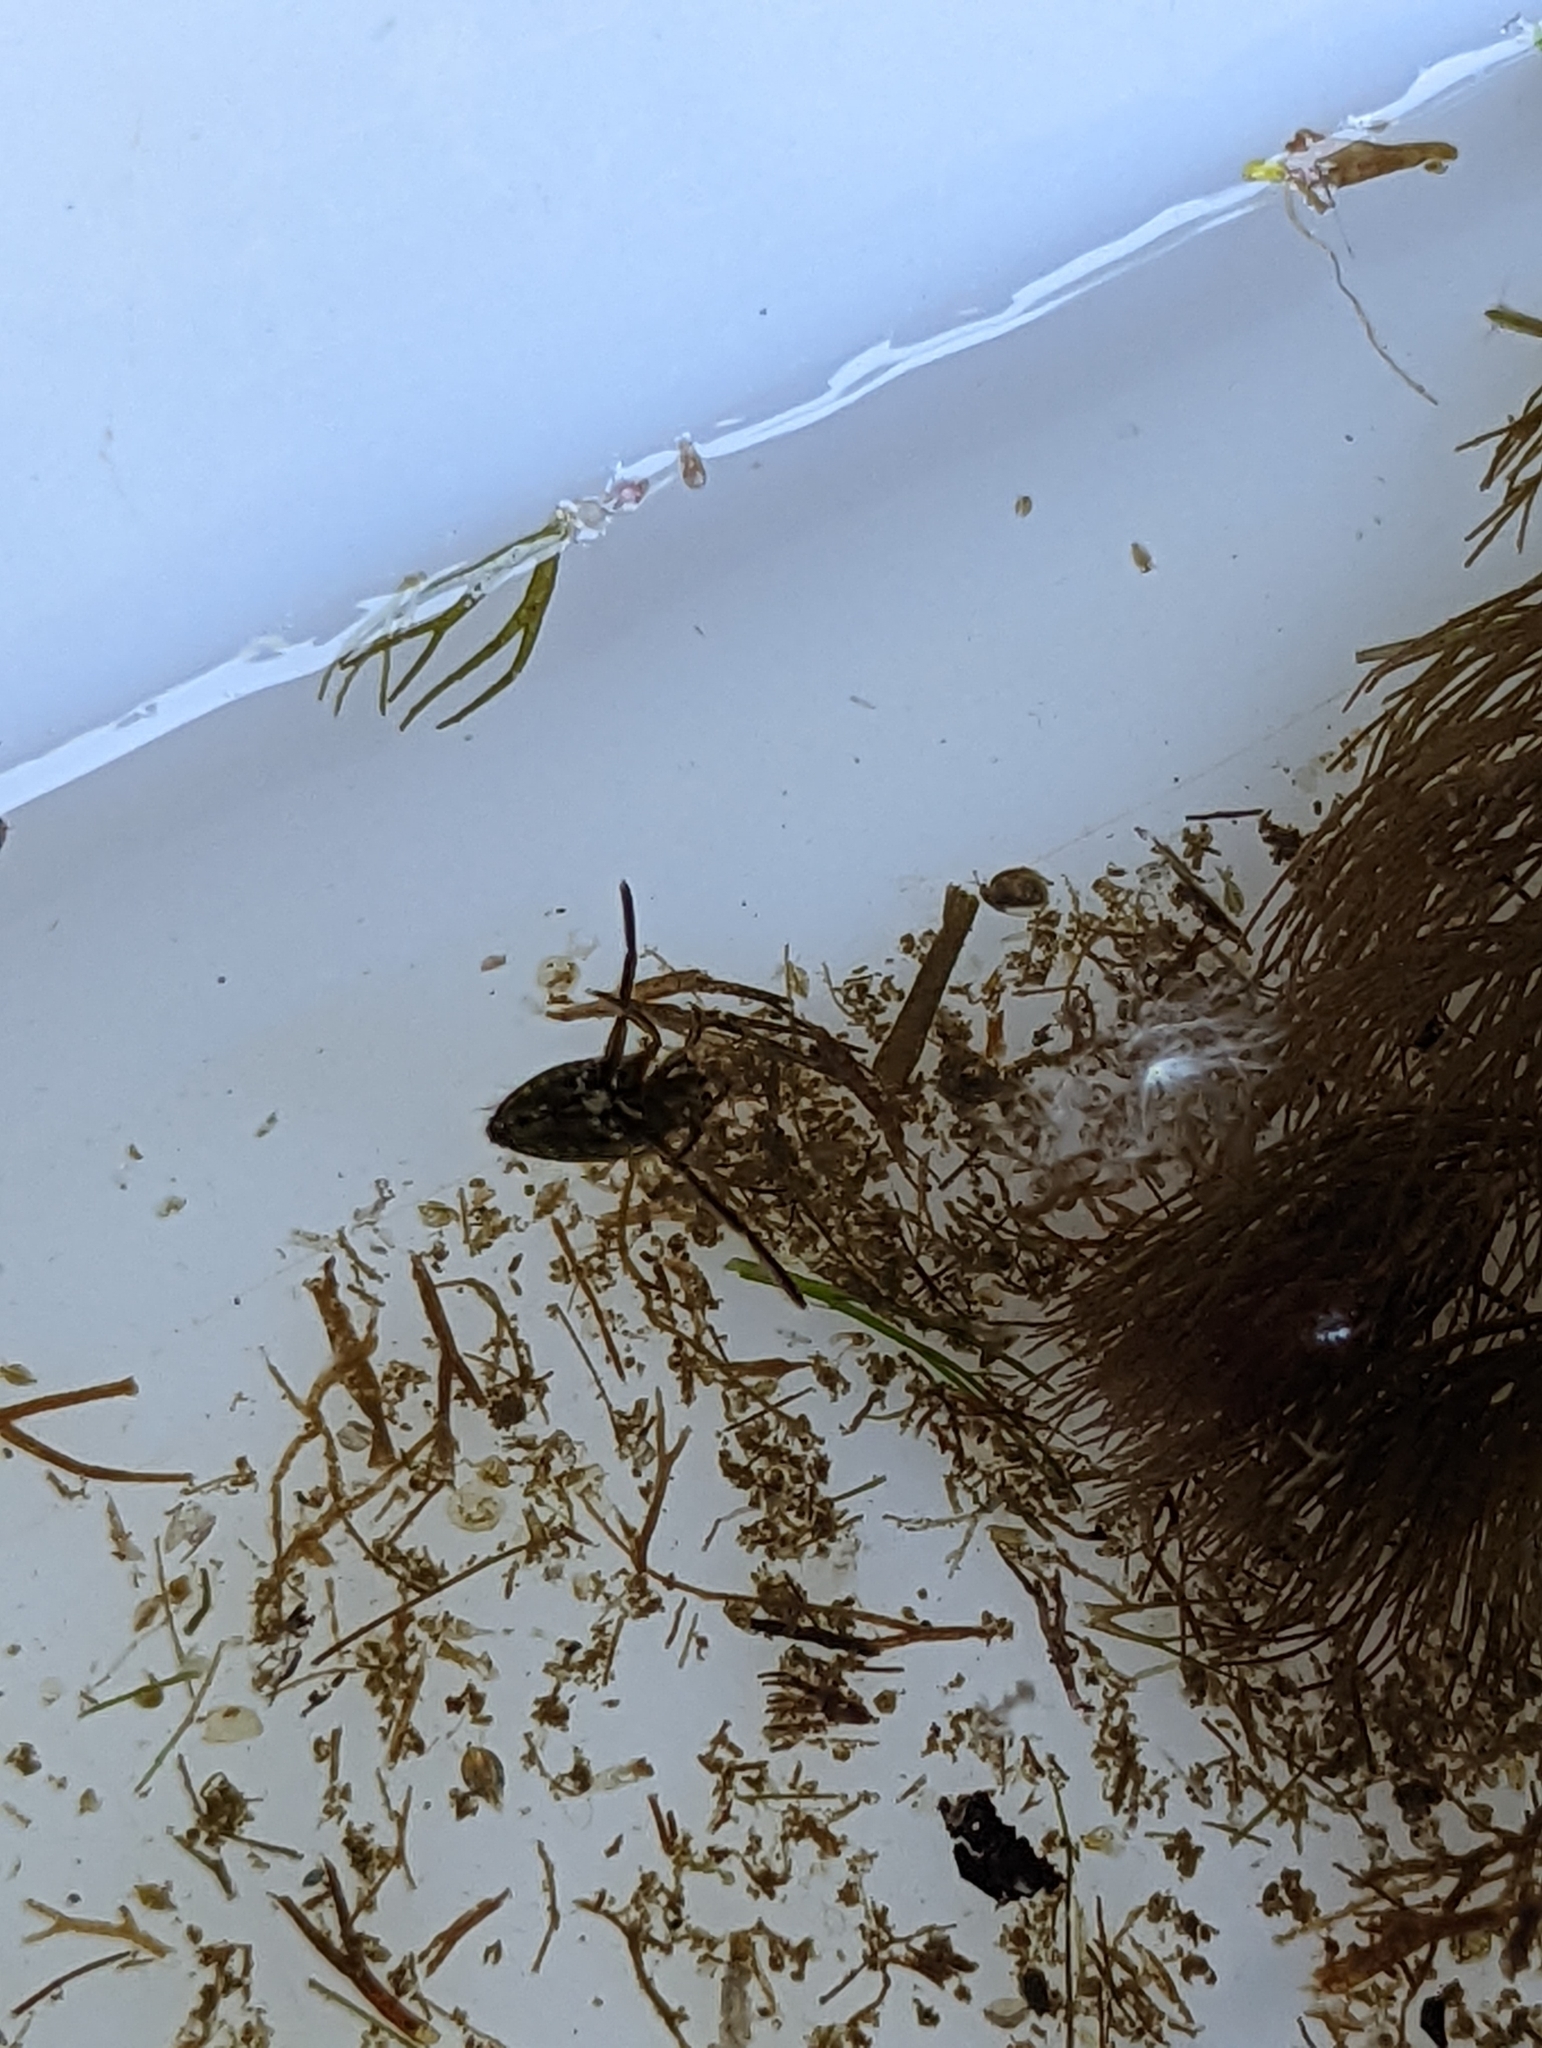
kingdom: Animalia
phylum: Arthropoda
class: Insecta
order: Hemiptera
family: Notonectidae
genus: Notonecta
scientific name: Notonecta
